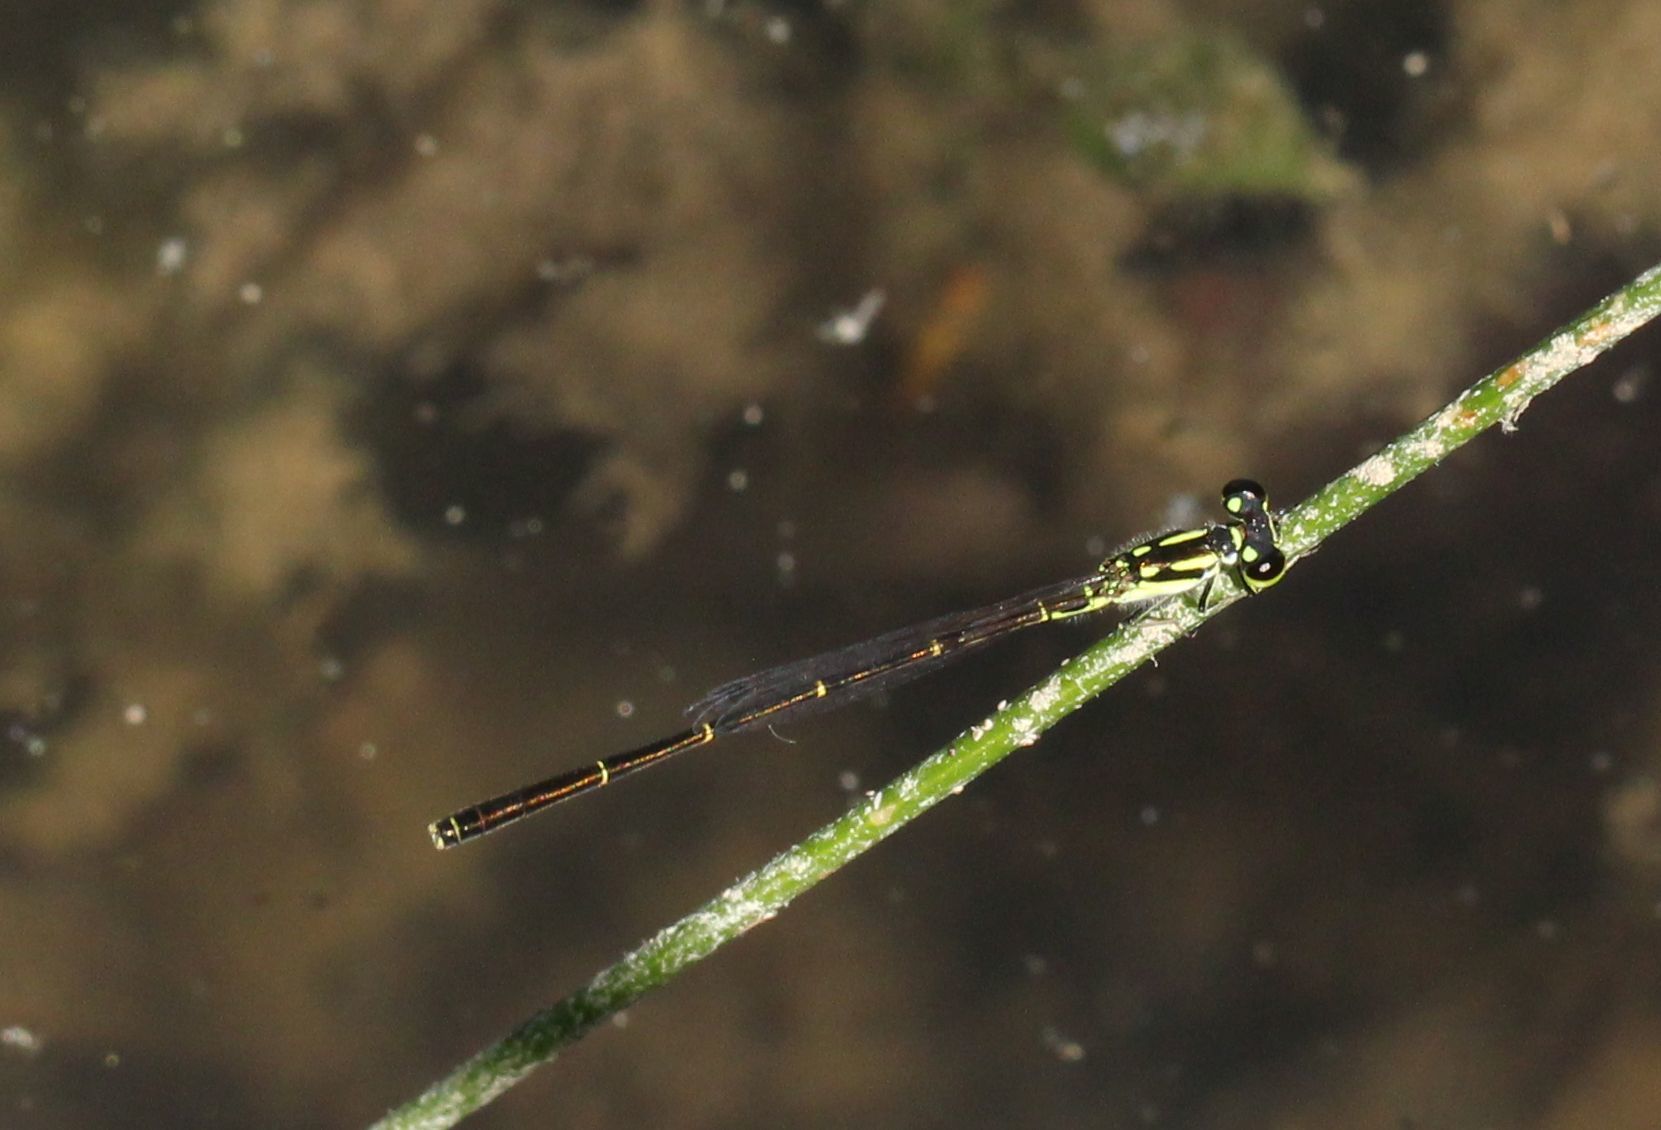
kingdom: Animalia
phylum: Arthropoda
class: Insecta
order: Odonata
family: Coenagrionidae
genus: Ischnura
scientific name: Ischnura posita
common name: Fragile forktail
